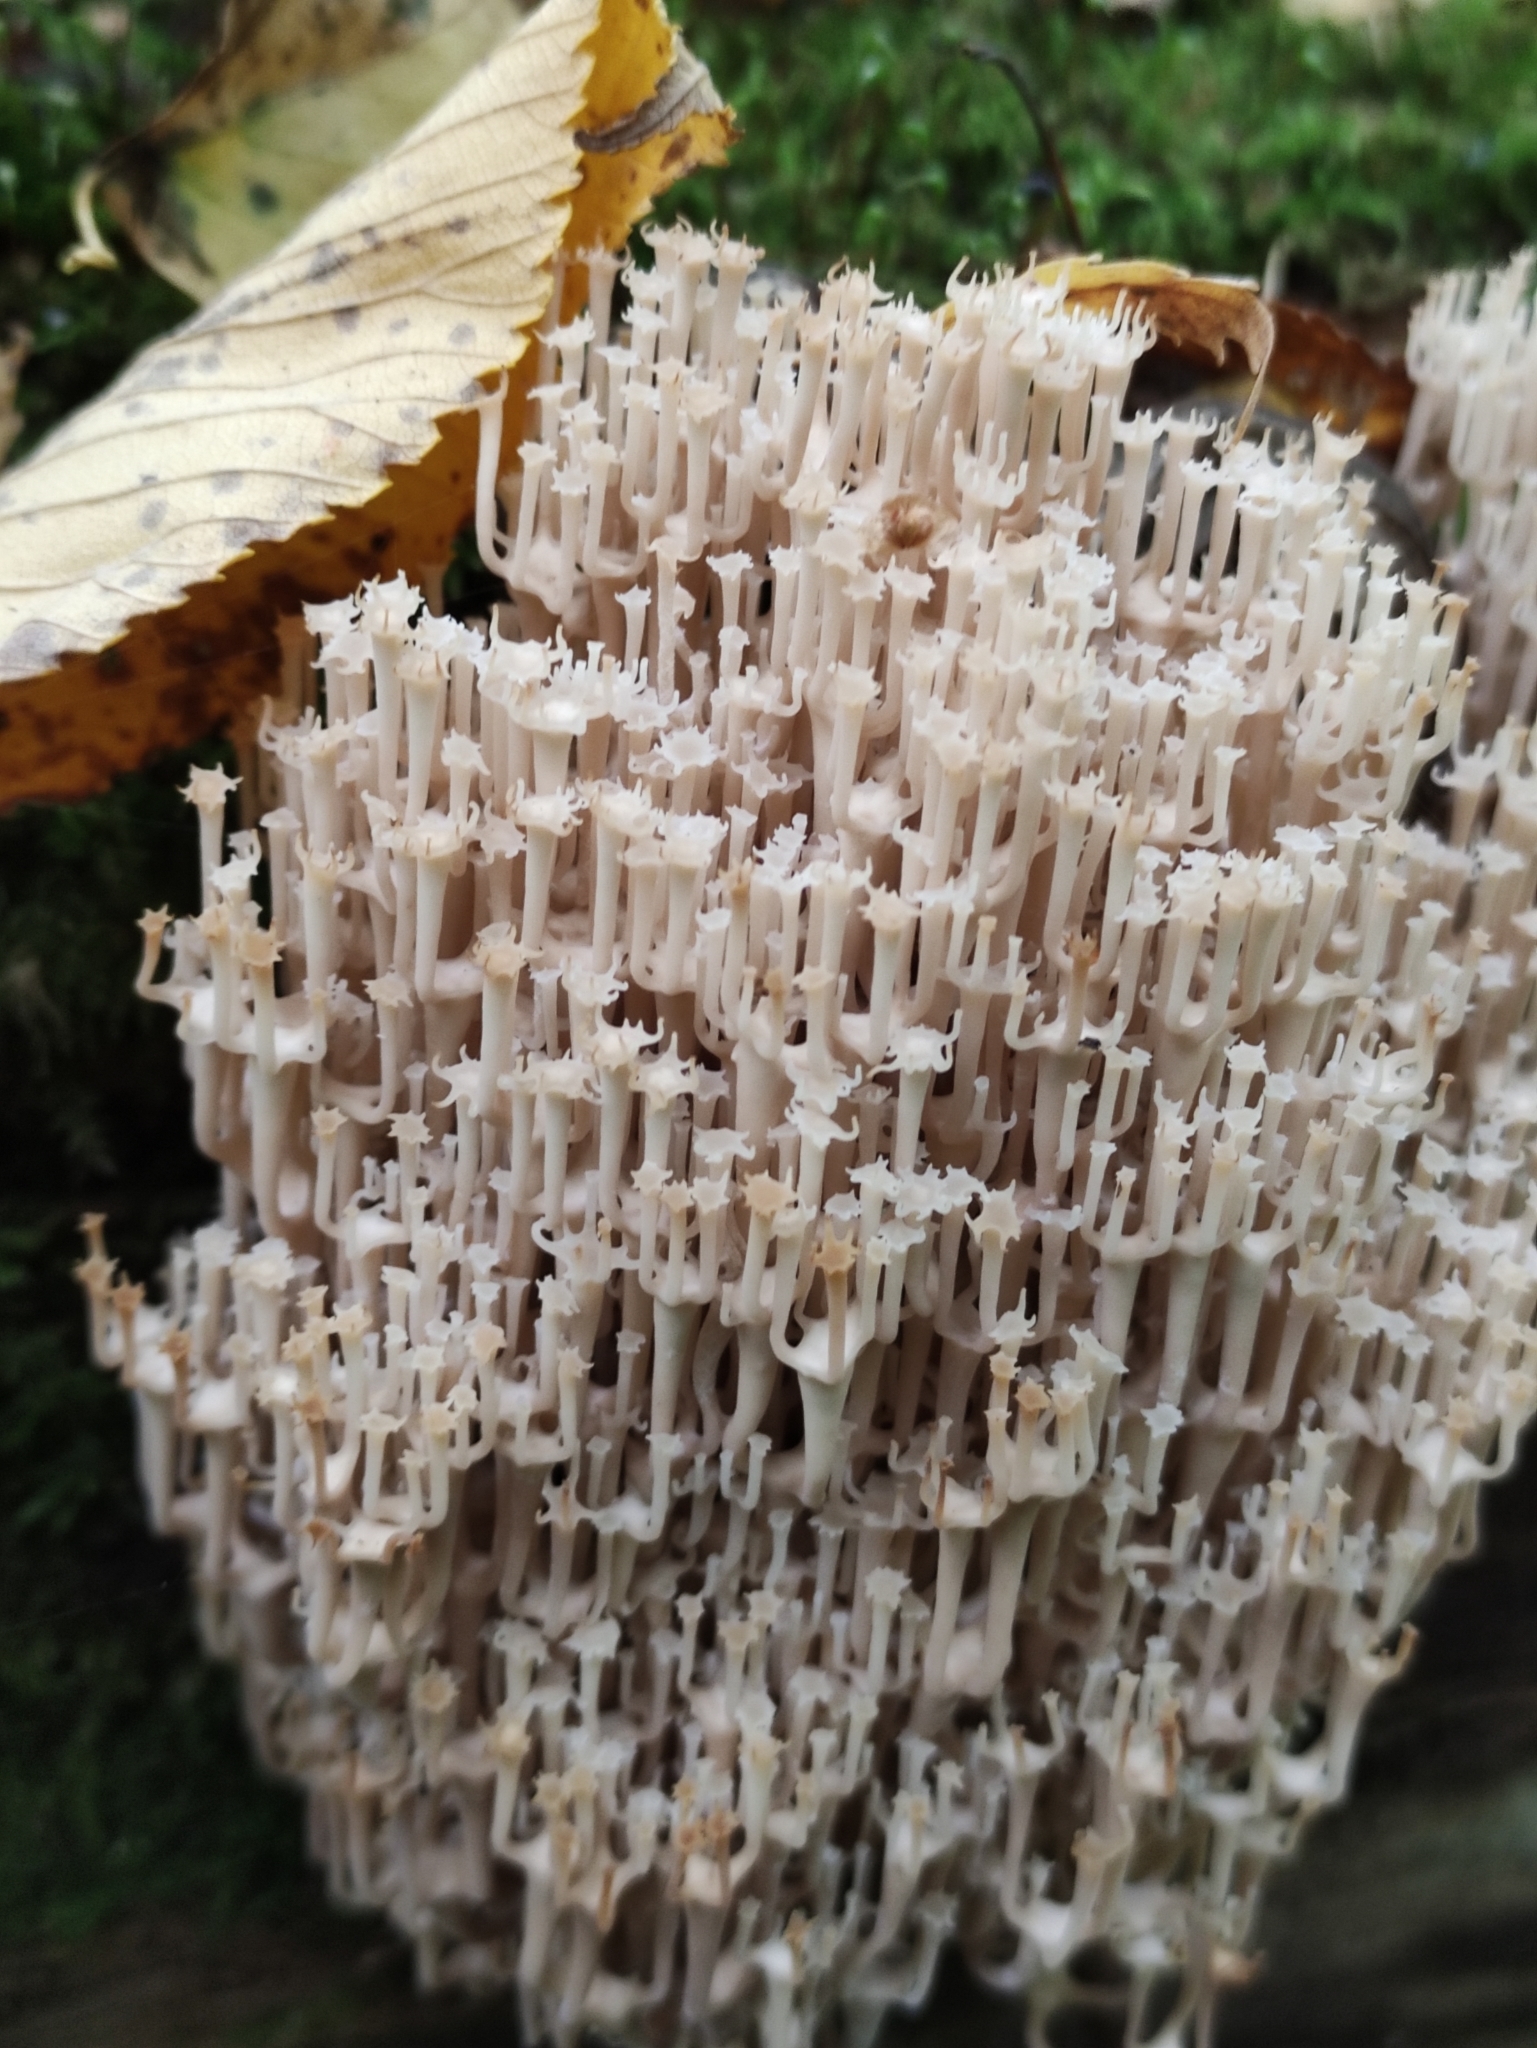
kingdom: Fungi
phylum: Basidiomycota
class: Agaricomycetes
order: Russulales
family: Auriscalpiaceae
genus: Artomyces
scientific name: Artomyces pyxidatus
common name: Crown-tipped coral fungus
